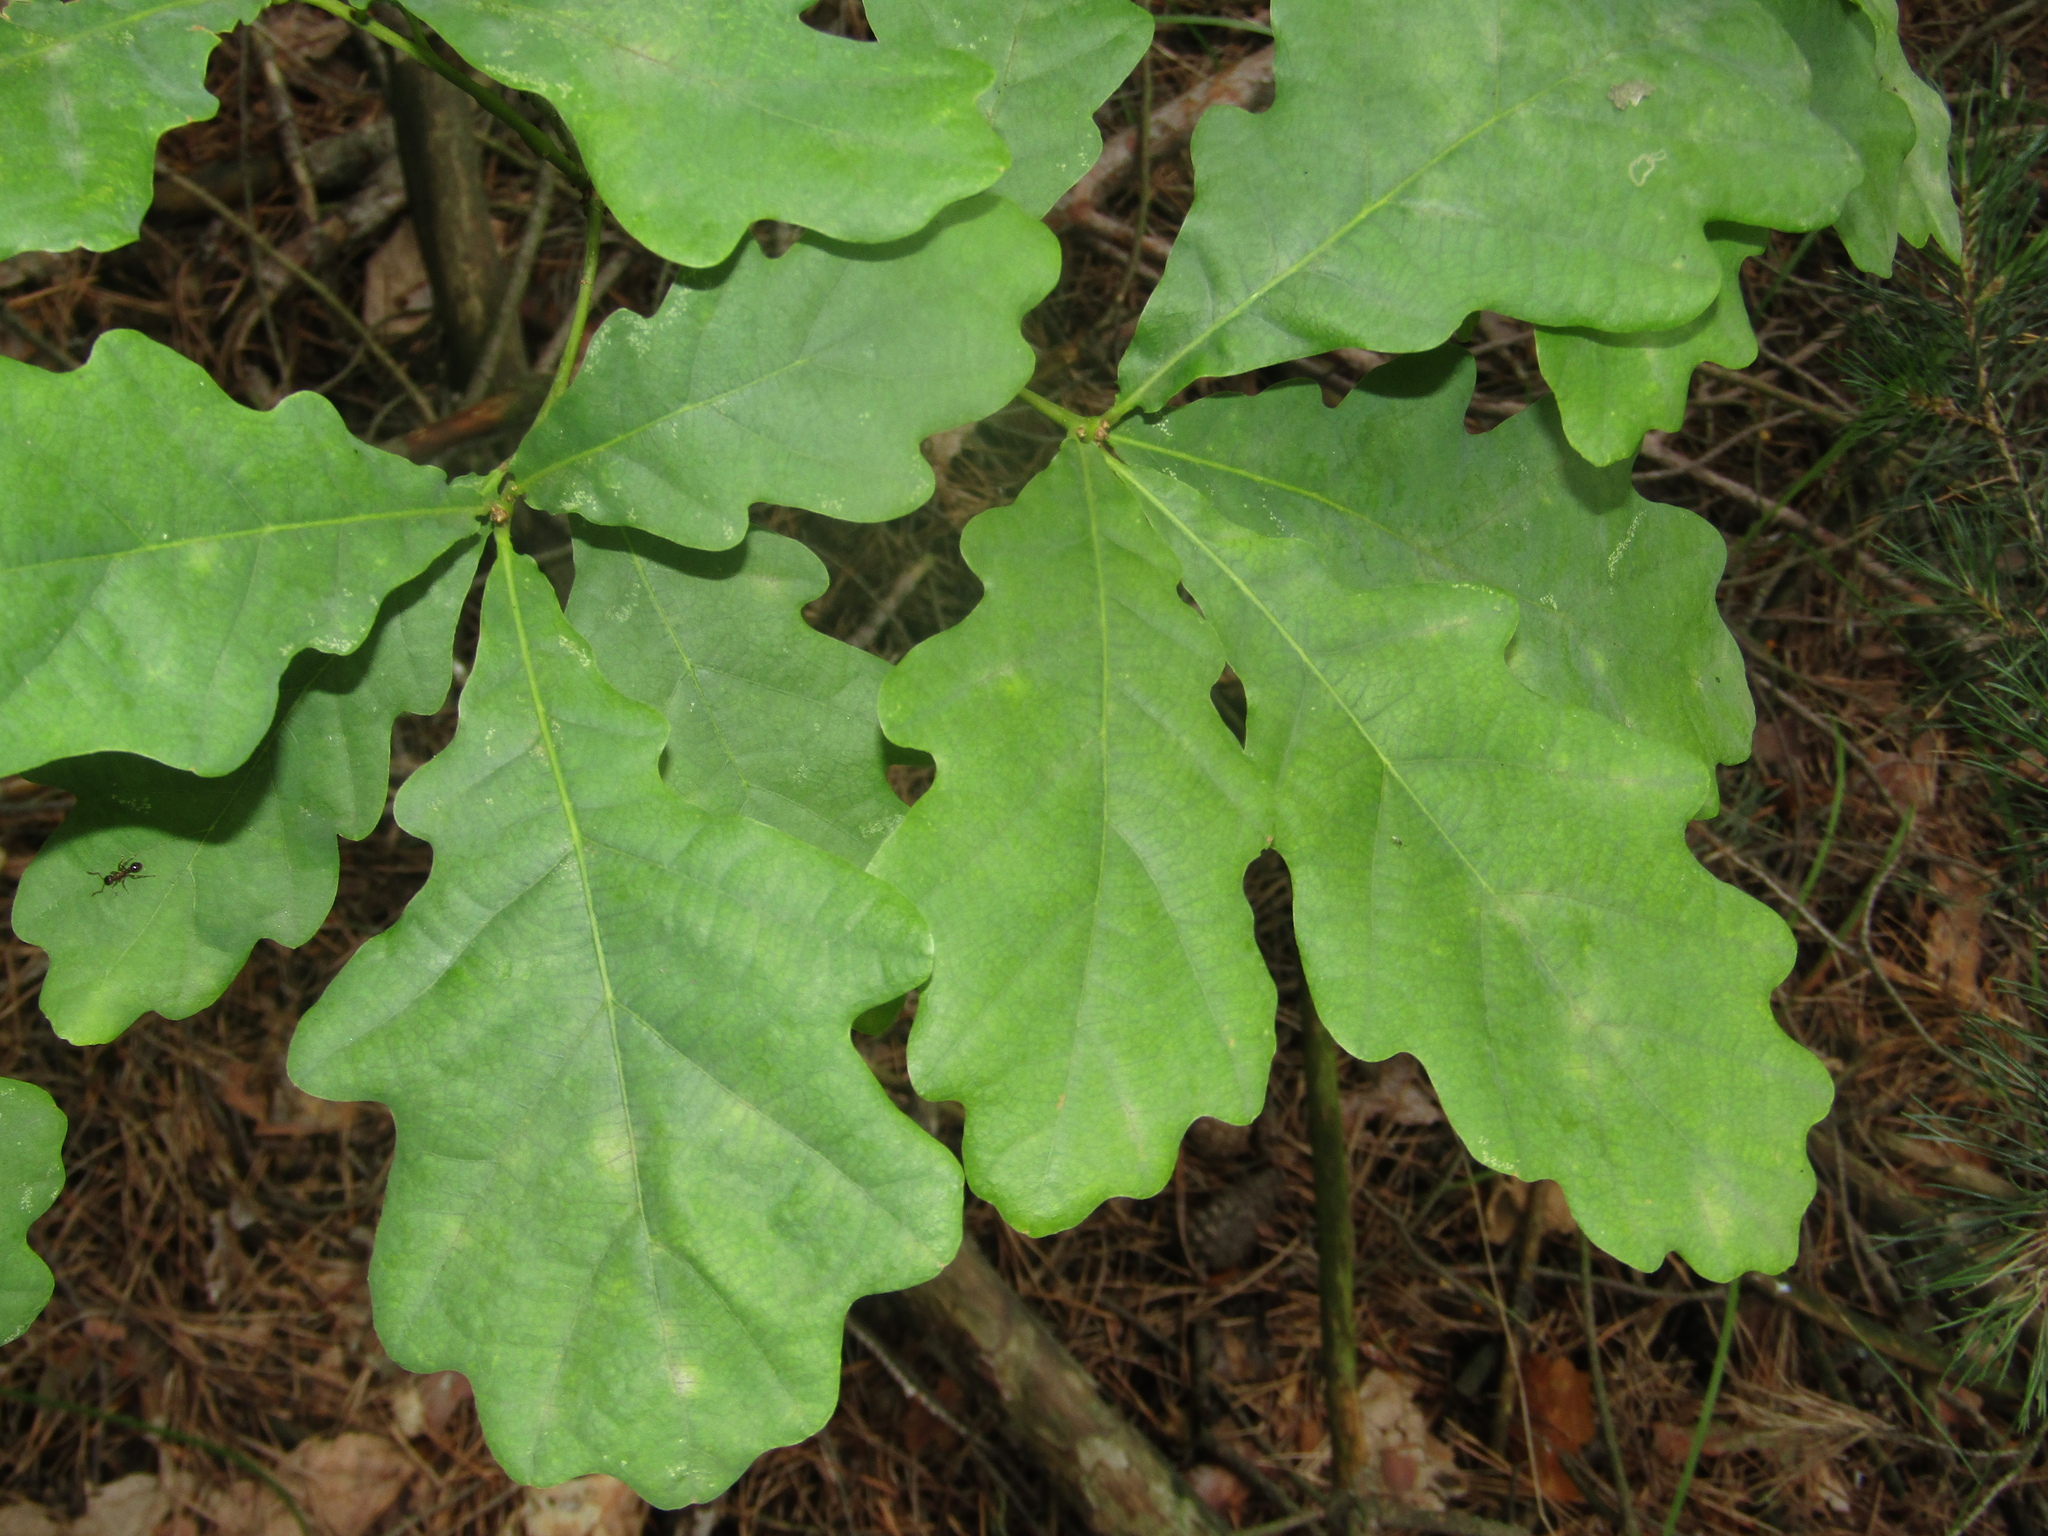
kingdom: Plantae
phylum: Tracheophyta
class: Magnoliopsida
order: Fagales
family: Fagaceae
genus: Quercus
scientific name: Quercus robur
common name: Pedunculate oak
